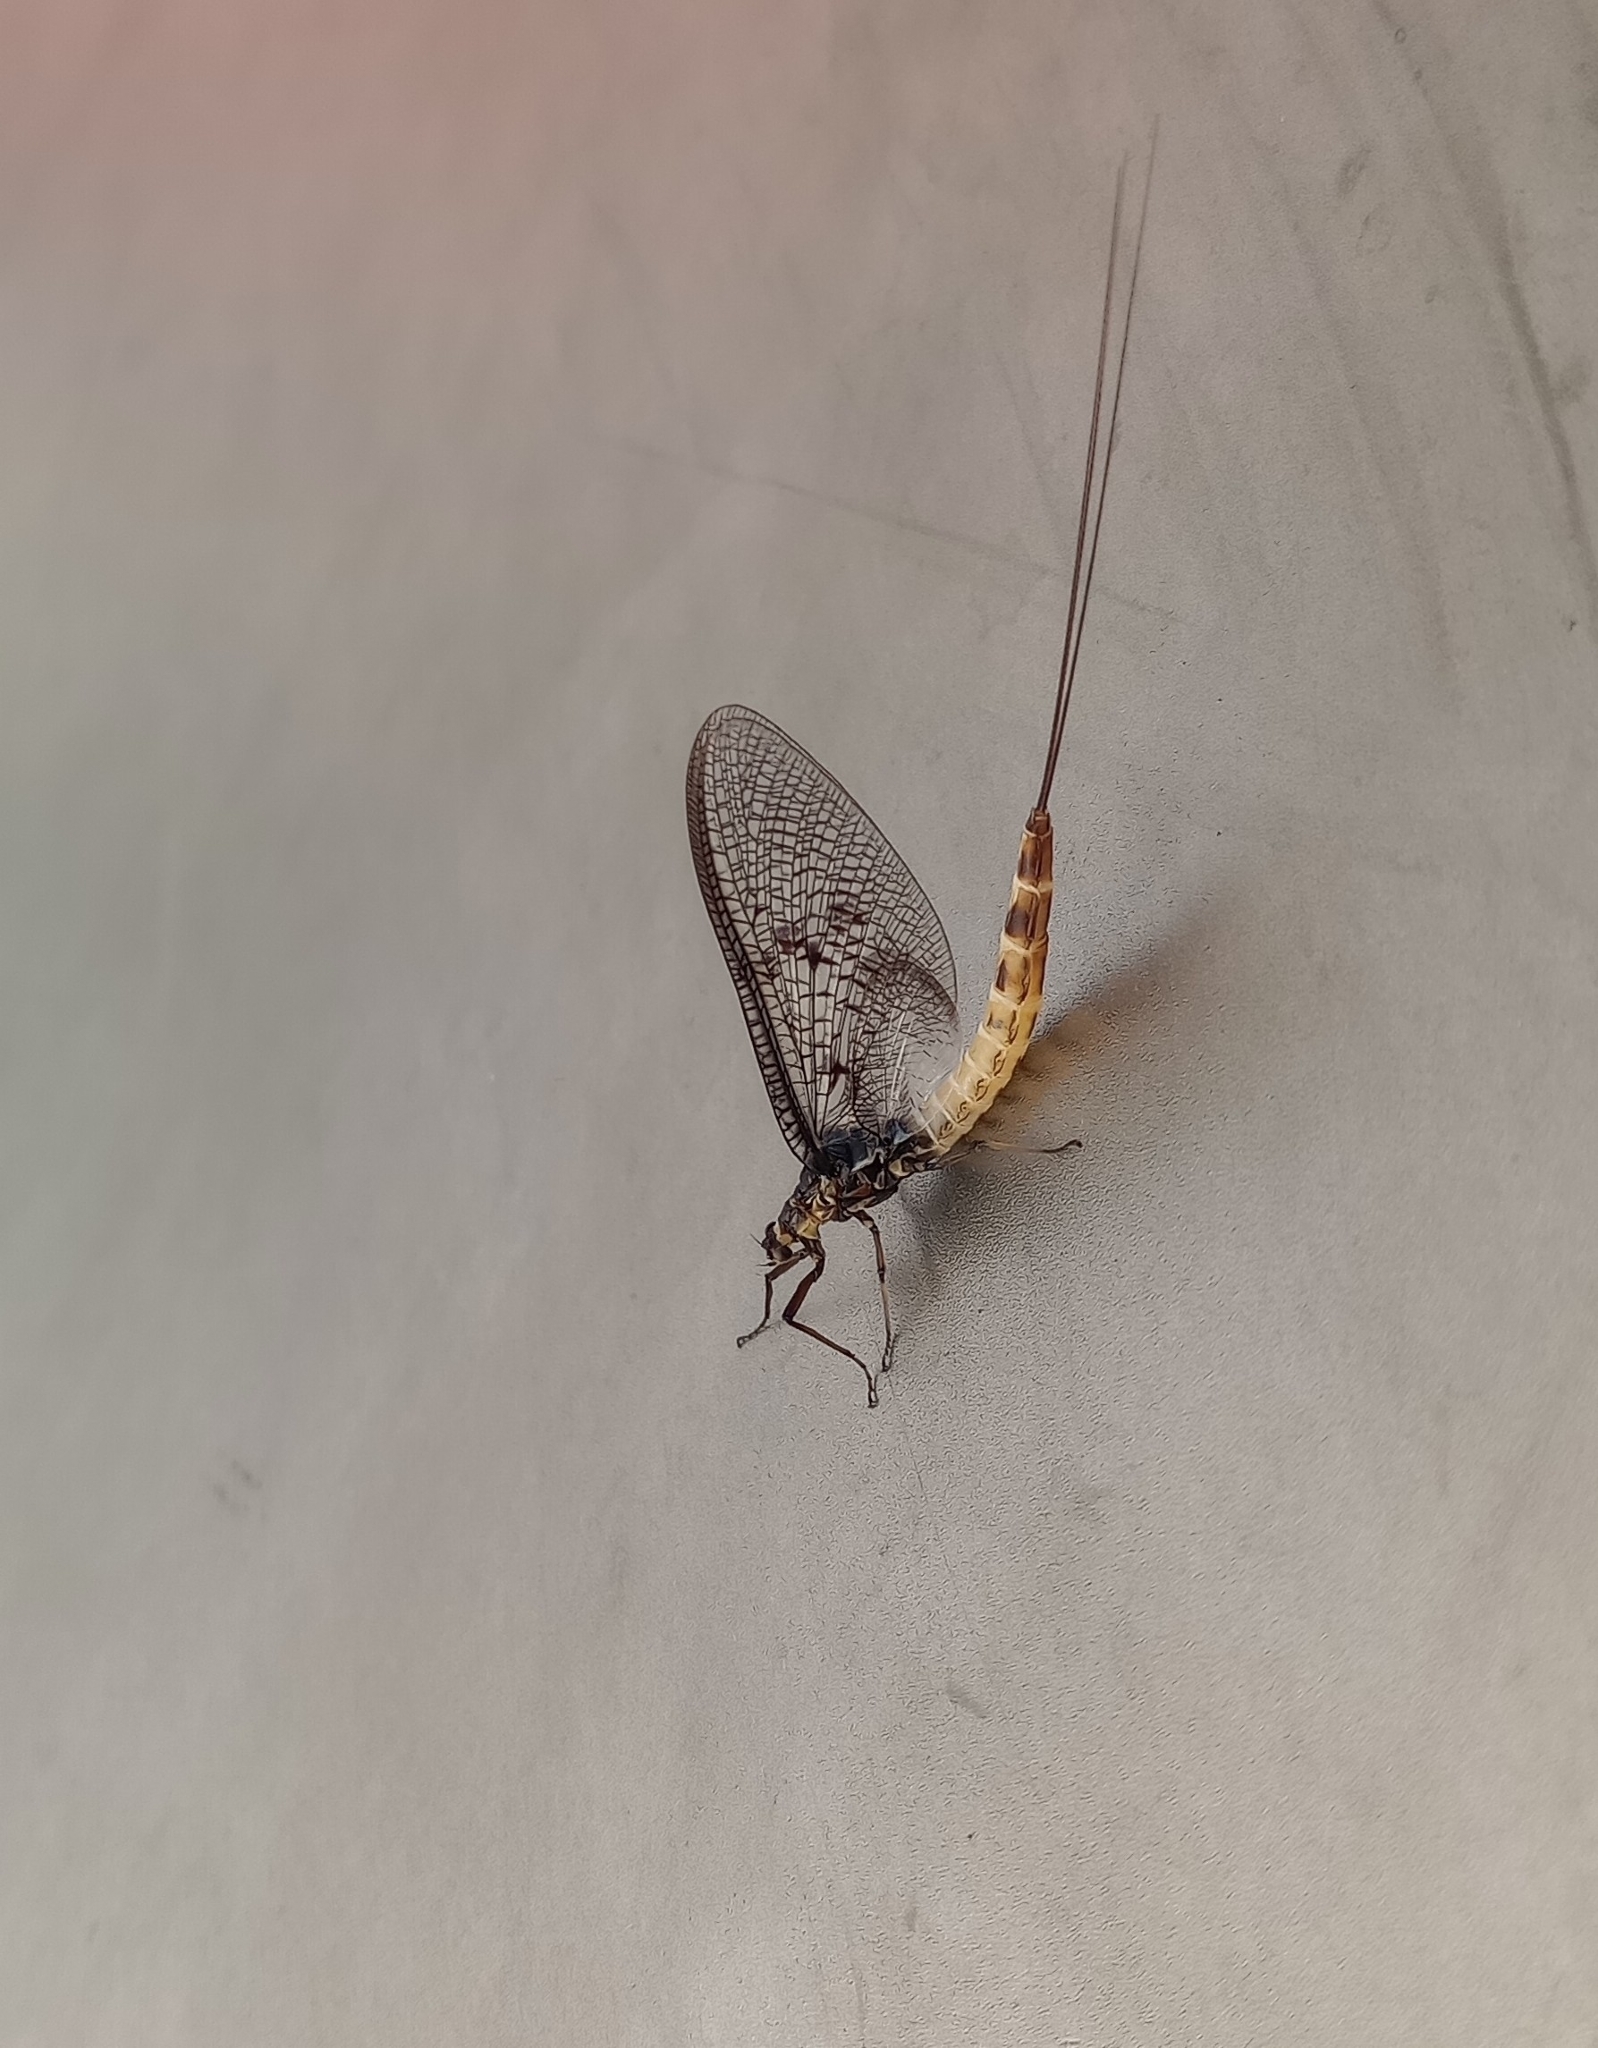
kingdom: Animalia
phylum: Arthropoda
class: Insecta
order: Ephemeroptera
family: Ephemeridae
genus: Ephemera
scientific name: Ephemera danica
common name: Green dun
